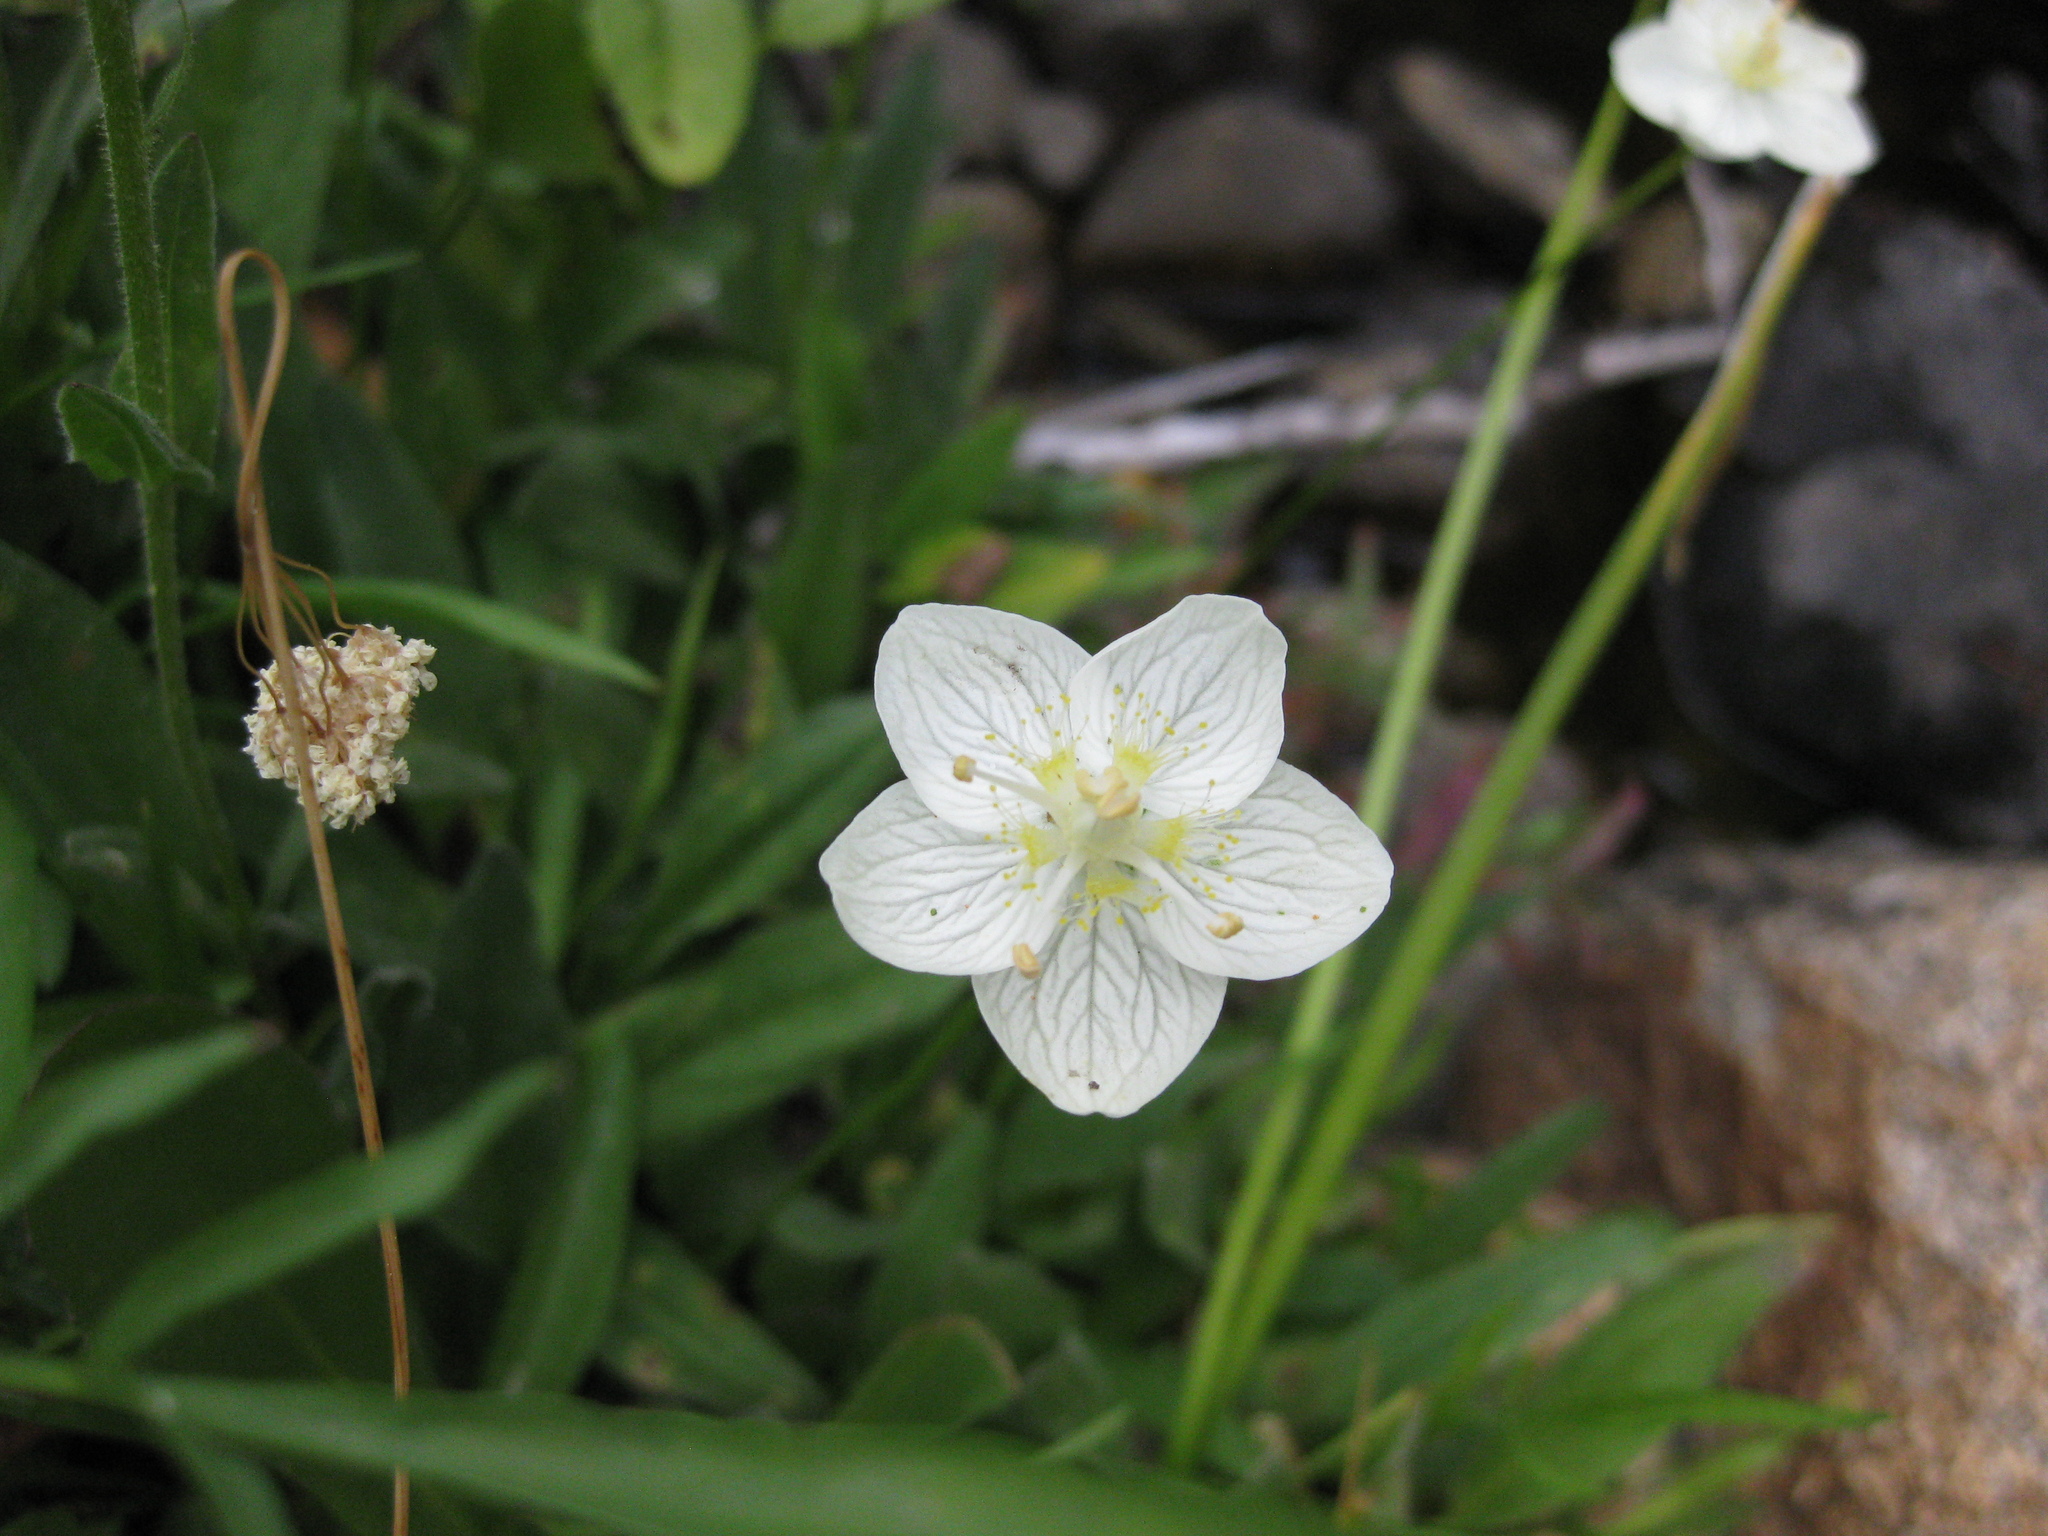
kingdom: Plantae
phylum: Tracheophyta
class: Magnoliopsida
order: Celastrales
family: Parnassiaceae
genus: Parnassia
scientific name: Parnassia palustris
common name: Grass-of-parnassus
